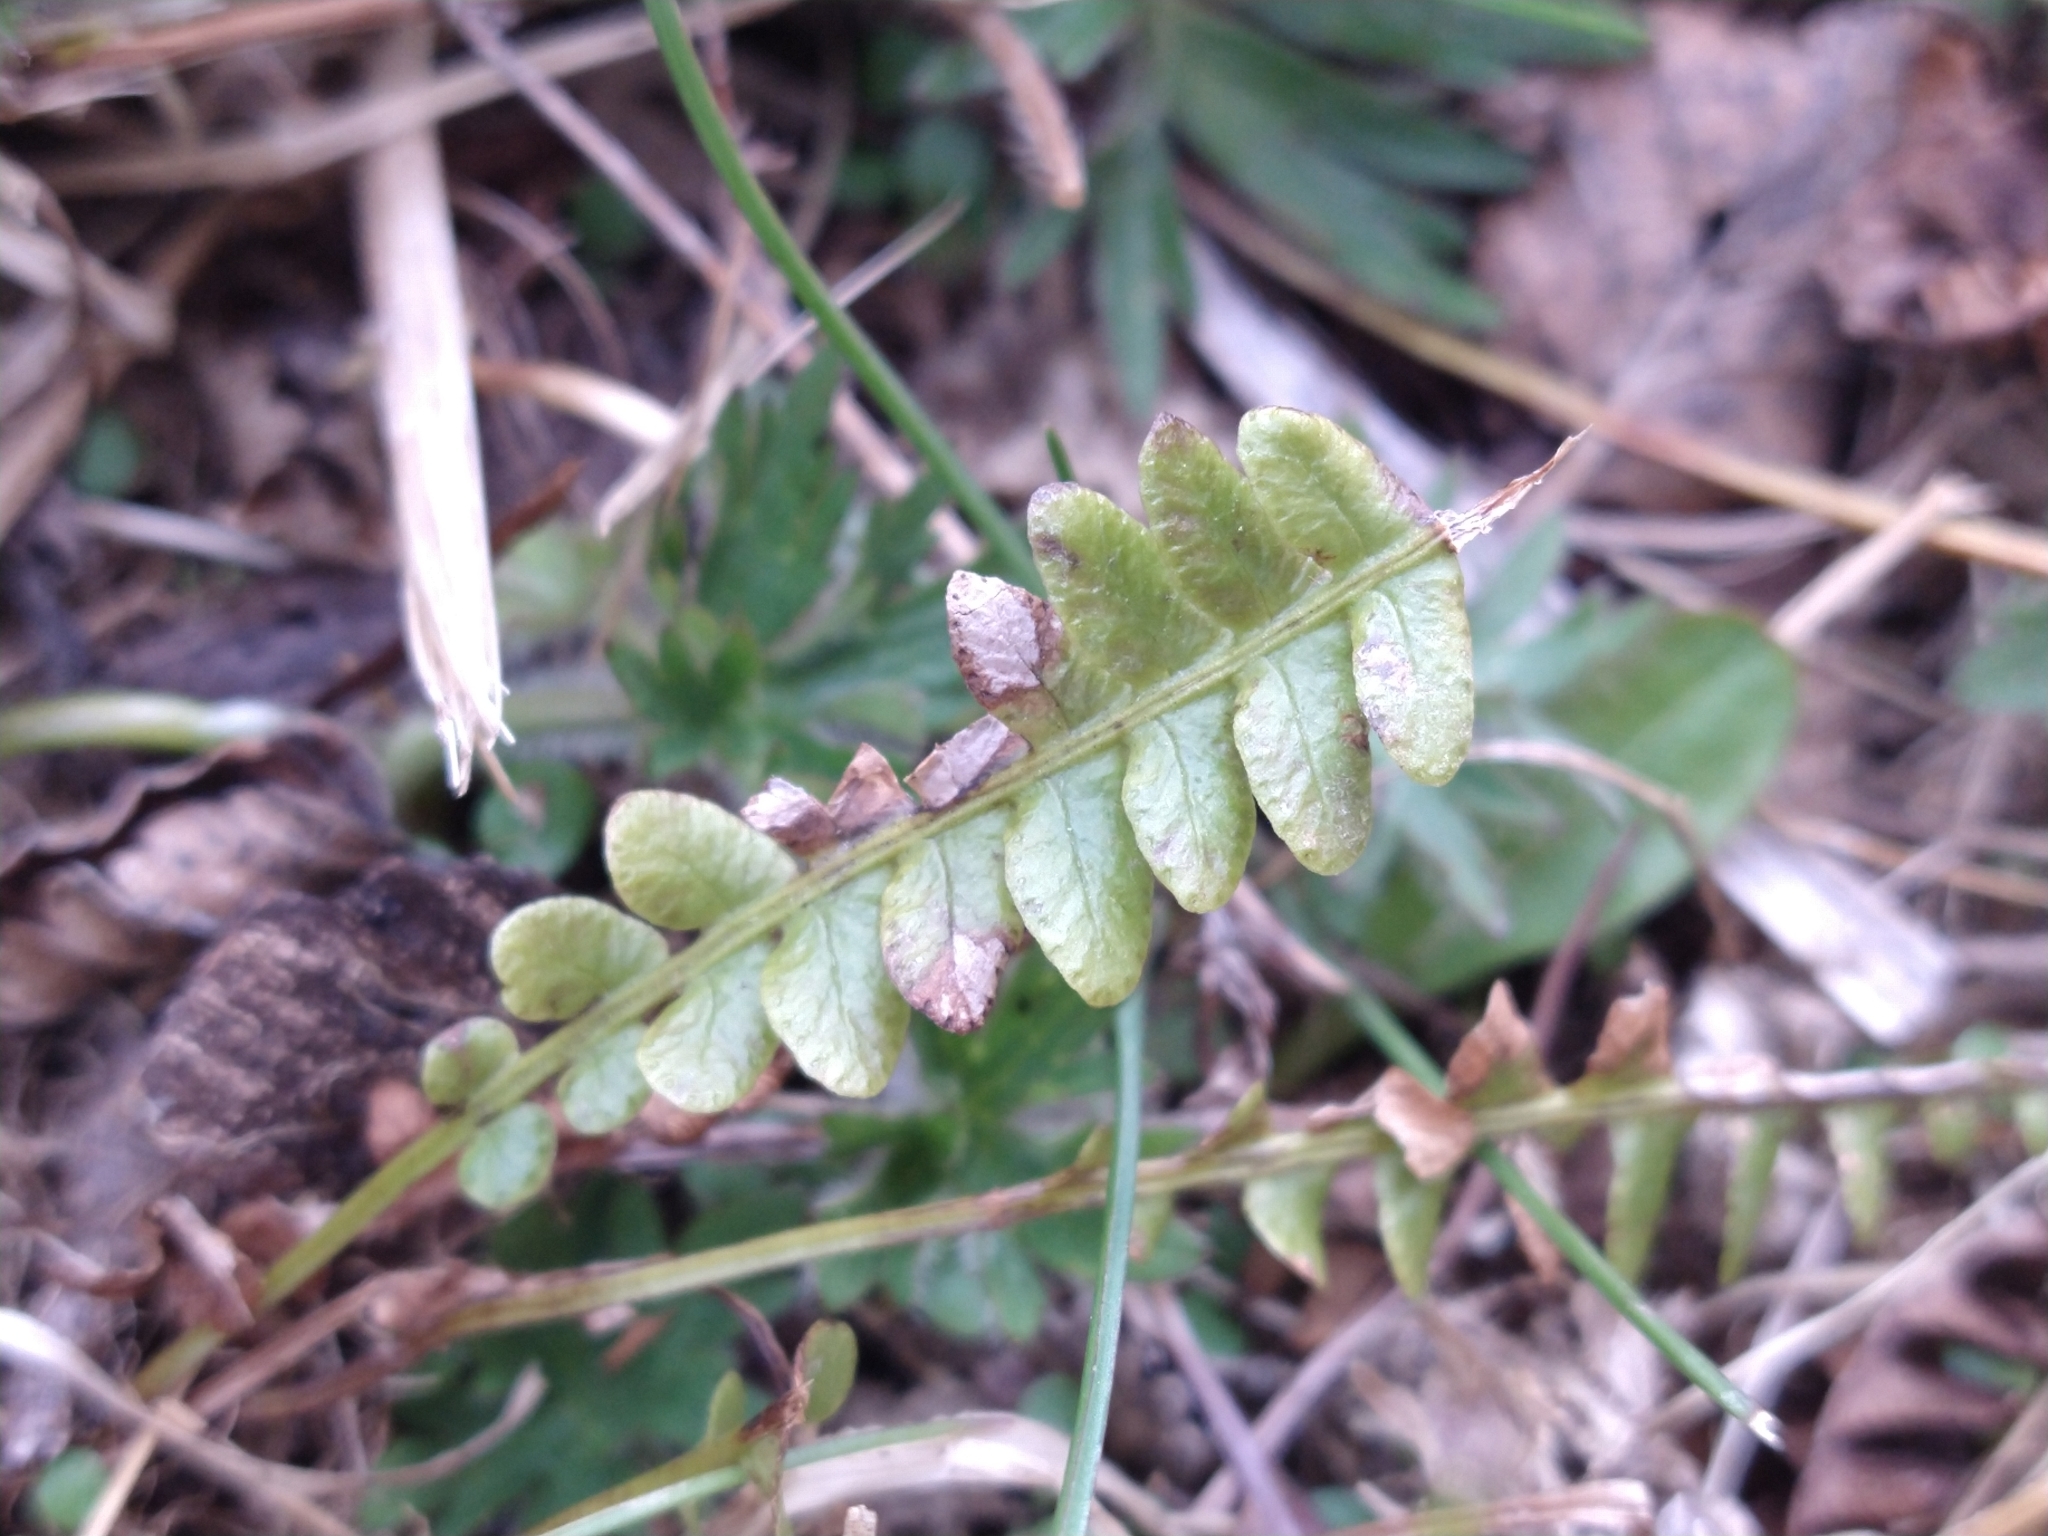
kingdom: Plantae
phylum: Tracheophyta
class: Polypodiopsida
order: Polypodiales
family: Blechnaceae
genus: Austroblechnum
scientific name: Austroblechnum penna-marina
